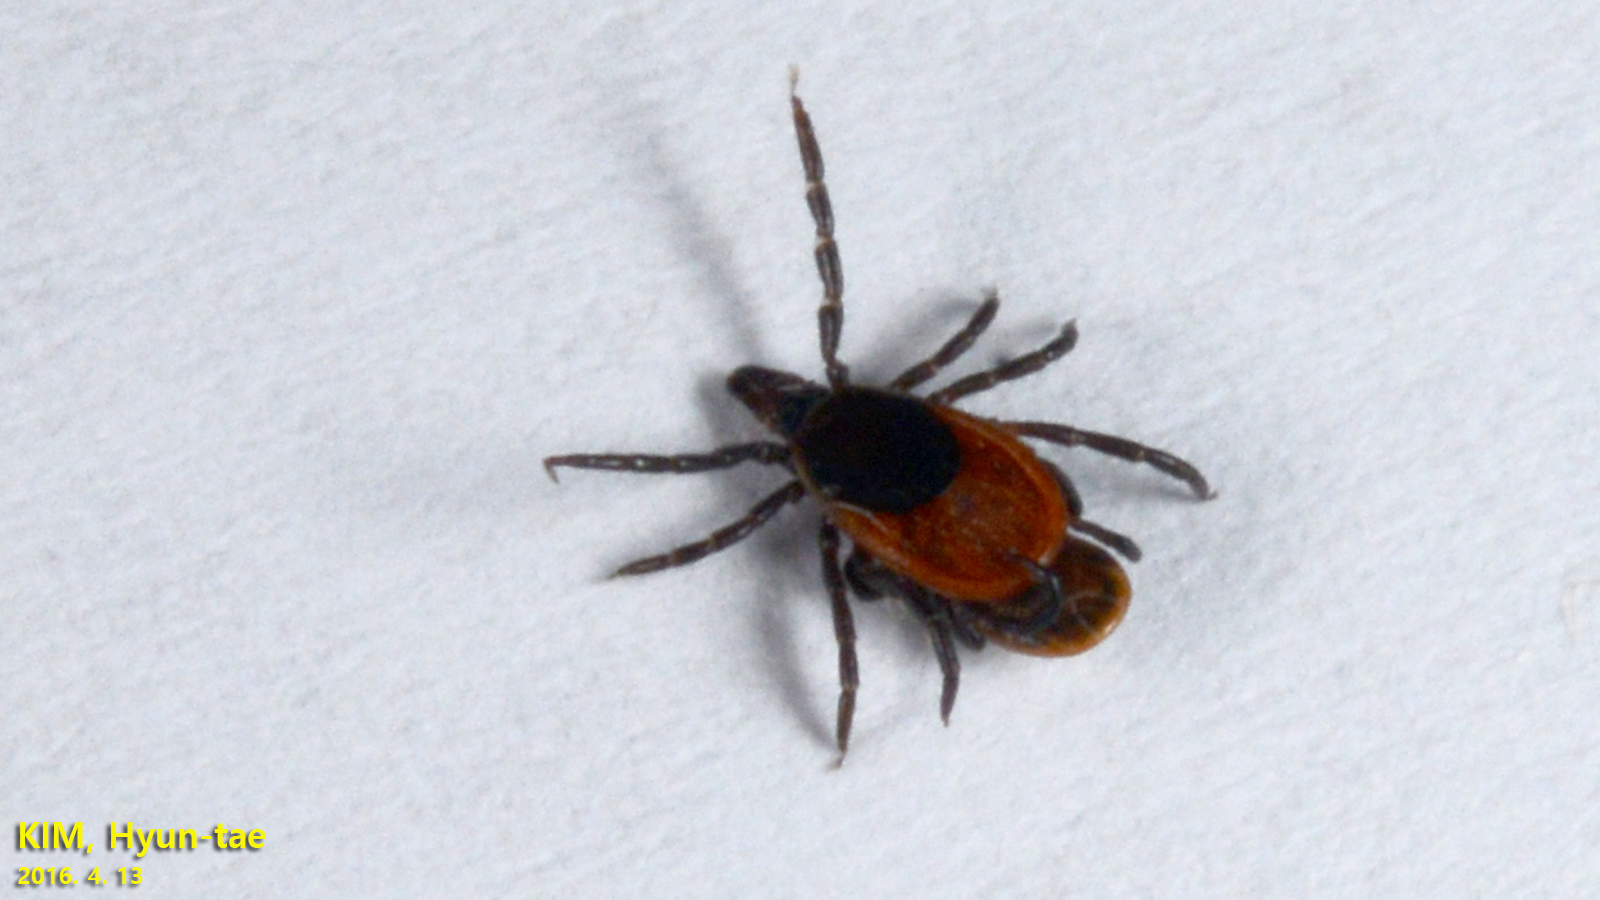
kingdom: Animalia
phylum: Arthropoda
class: Arachnida
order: Ixodida
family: Ixodidae
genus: Ixodes
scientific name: Ixodes nipponensis
